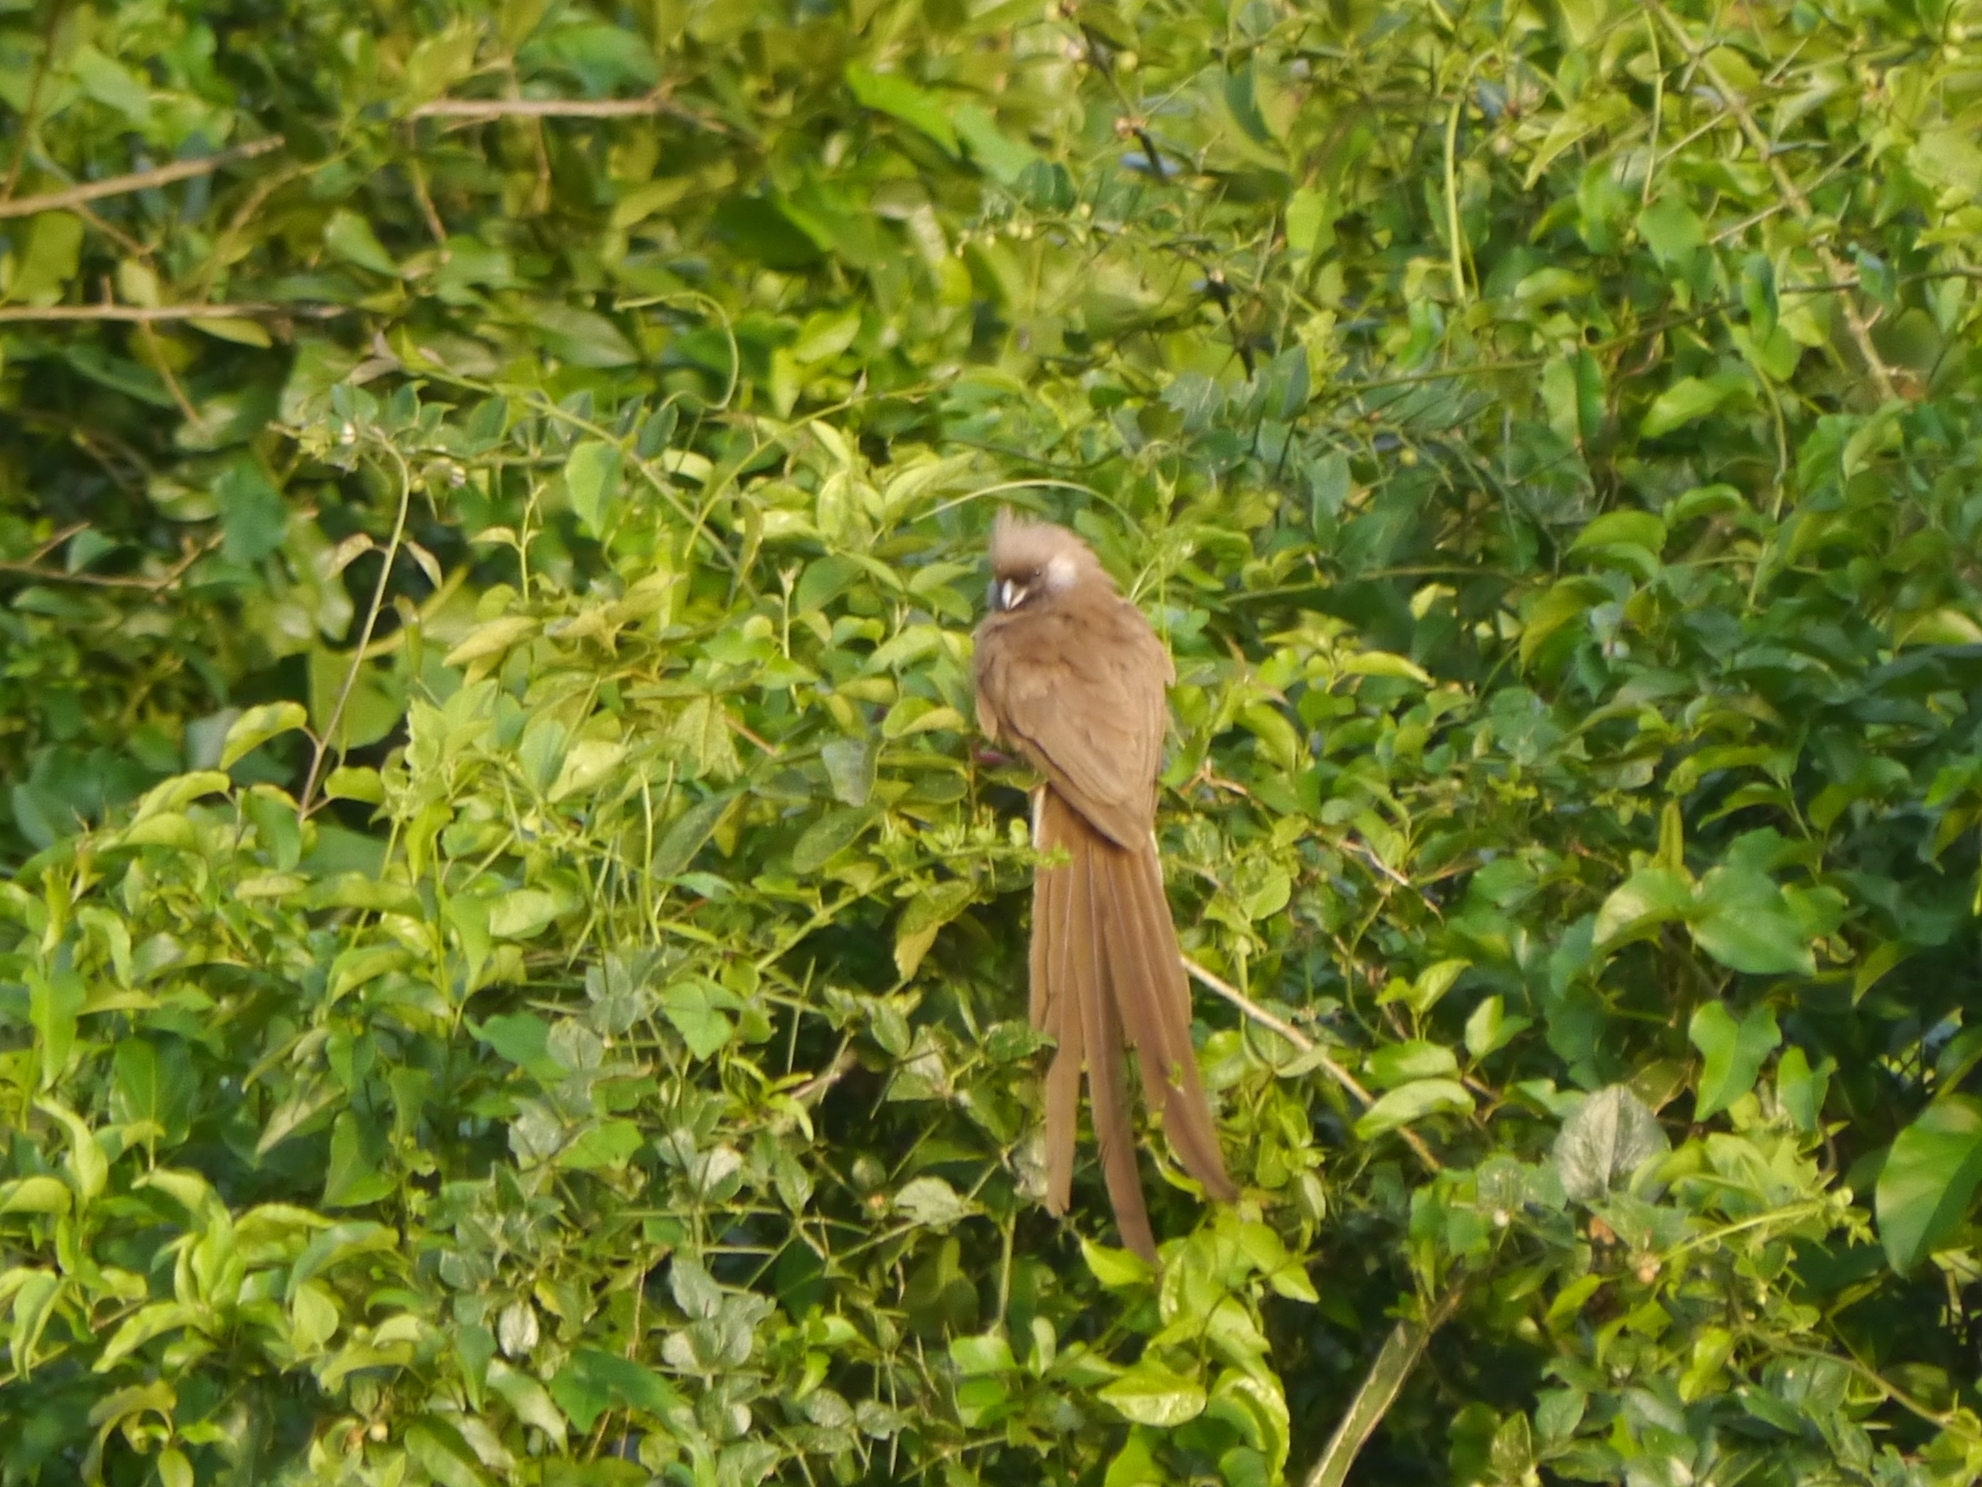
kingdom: Animalia
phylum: Chordata
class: Aves
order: Coliiformes
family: Coliidae
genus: Colius
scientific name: Colius striatus
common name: Speckled mousebird
